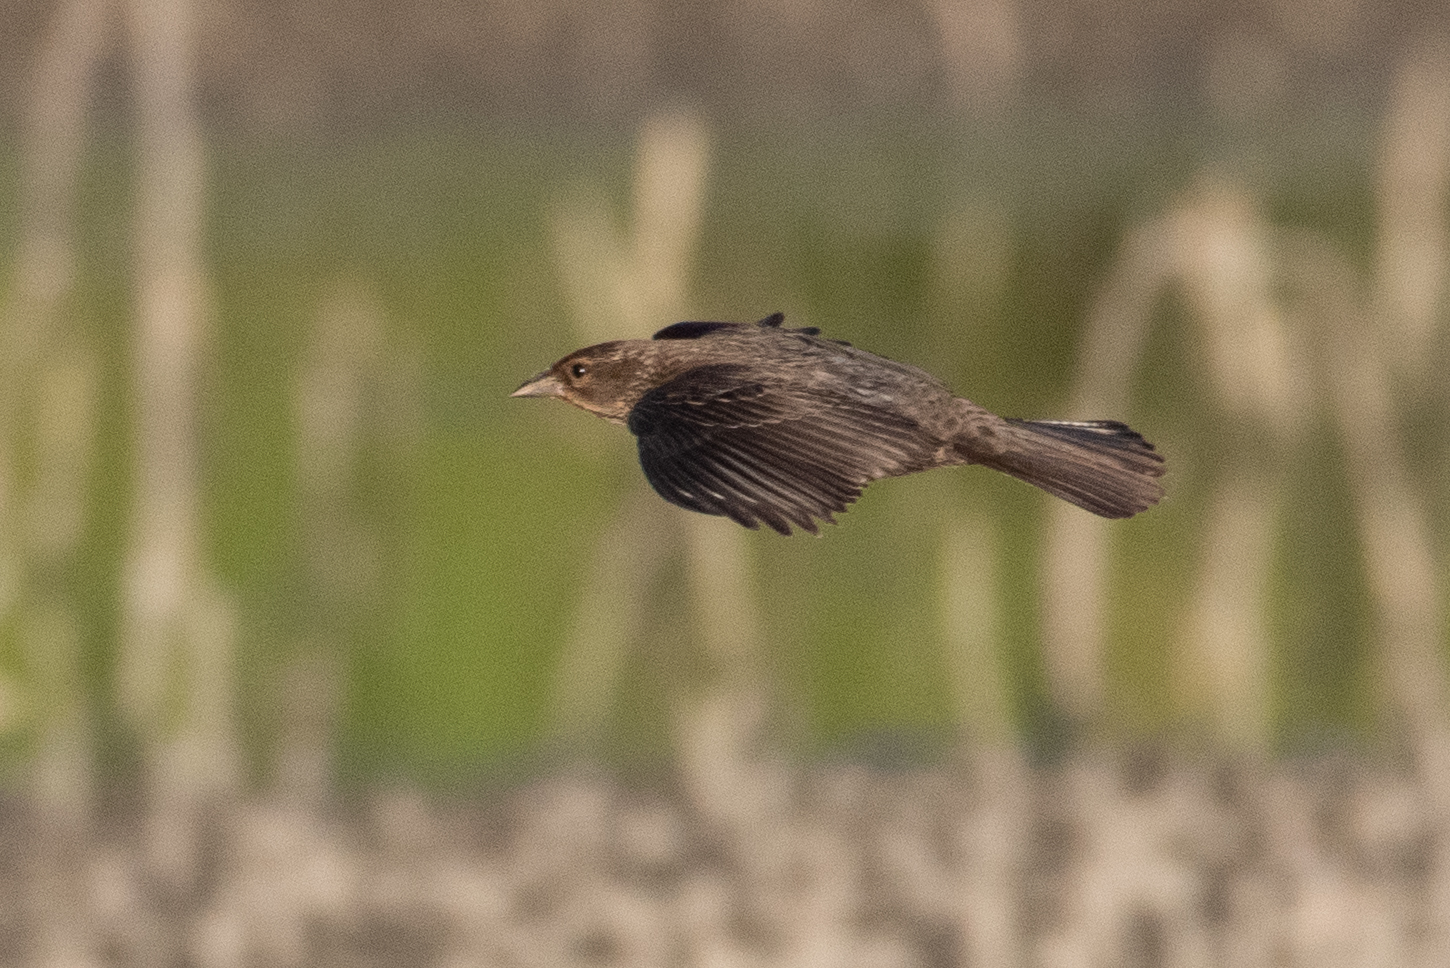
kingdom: Animalia
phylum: Chordata
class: Aves
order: Passeriformes
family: Icteridae
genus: Agelaius
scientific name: Agelaius phoeniceus
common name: Red-winged blackbird
